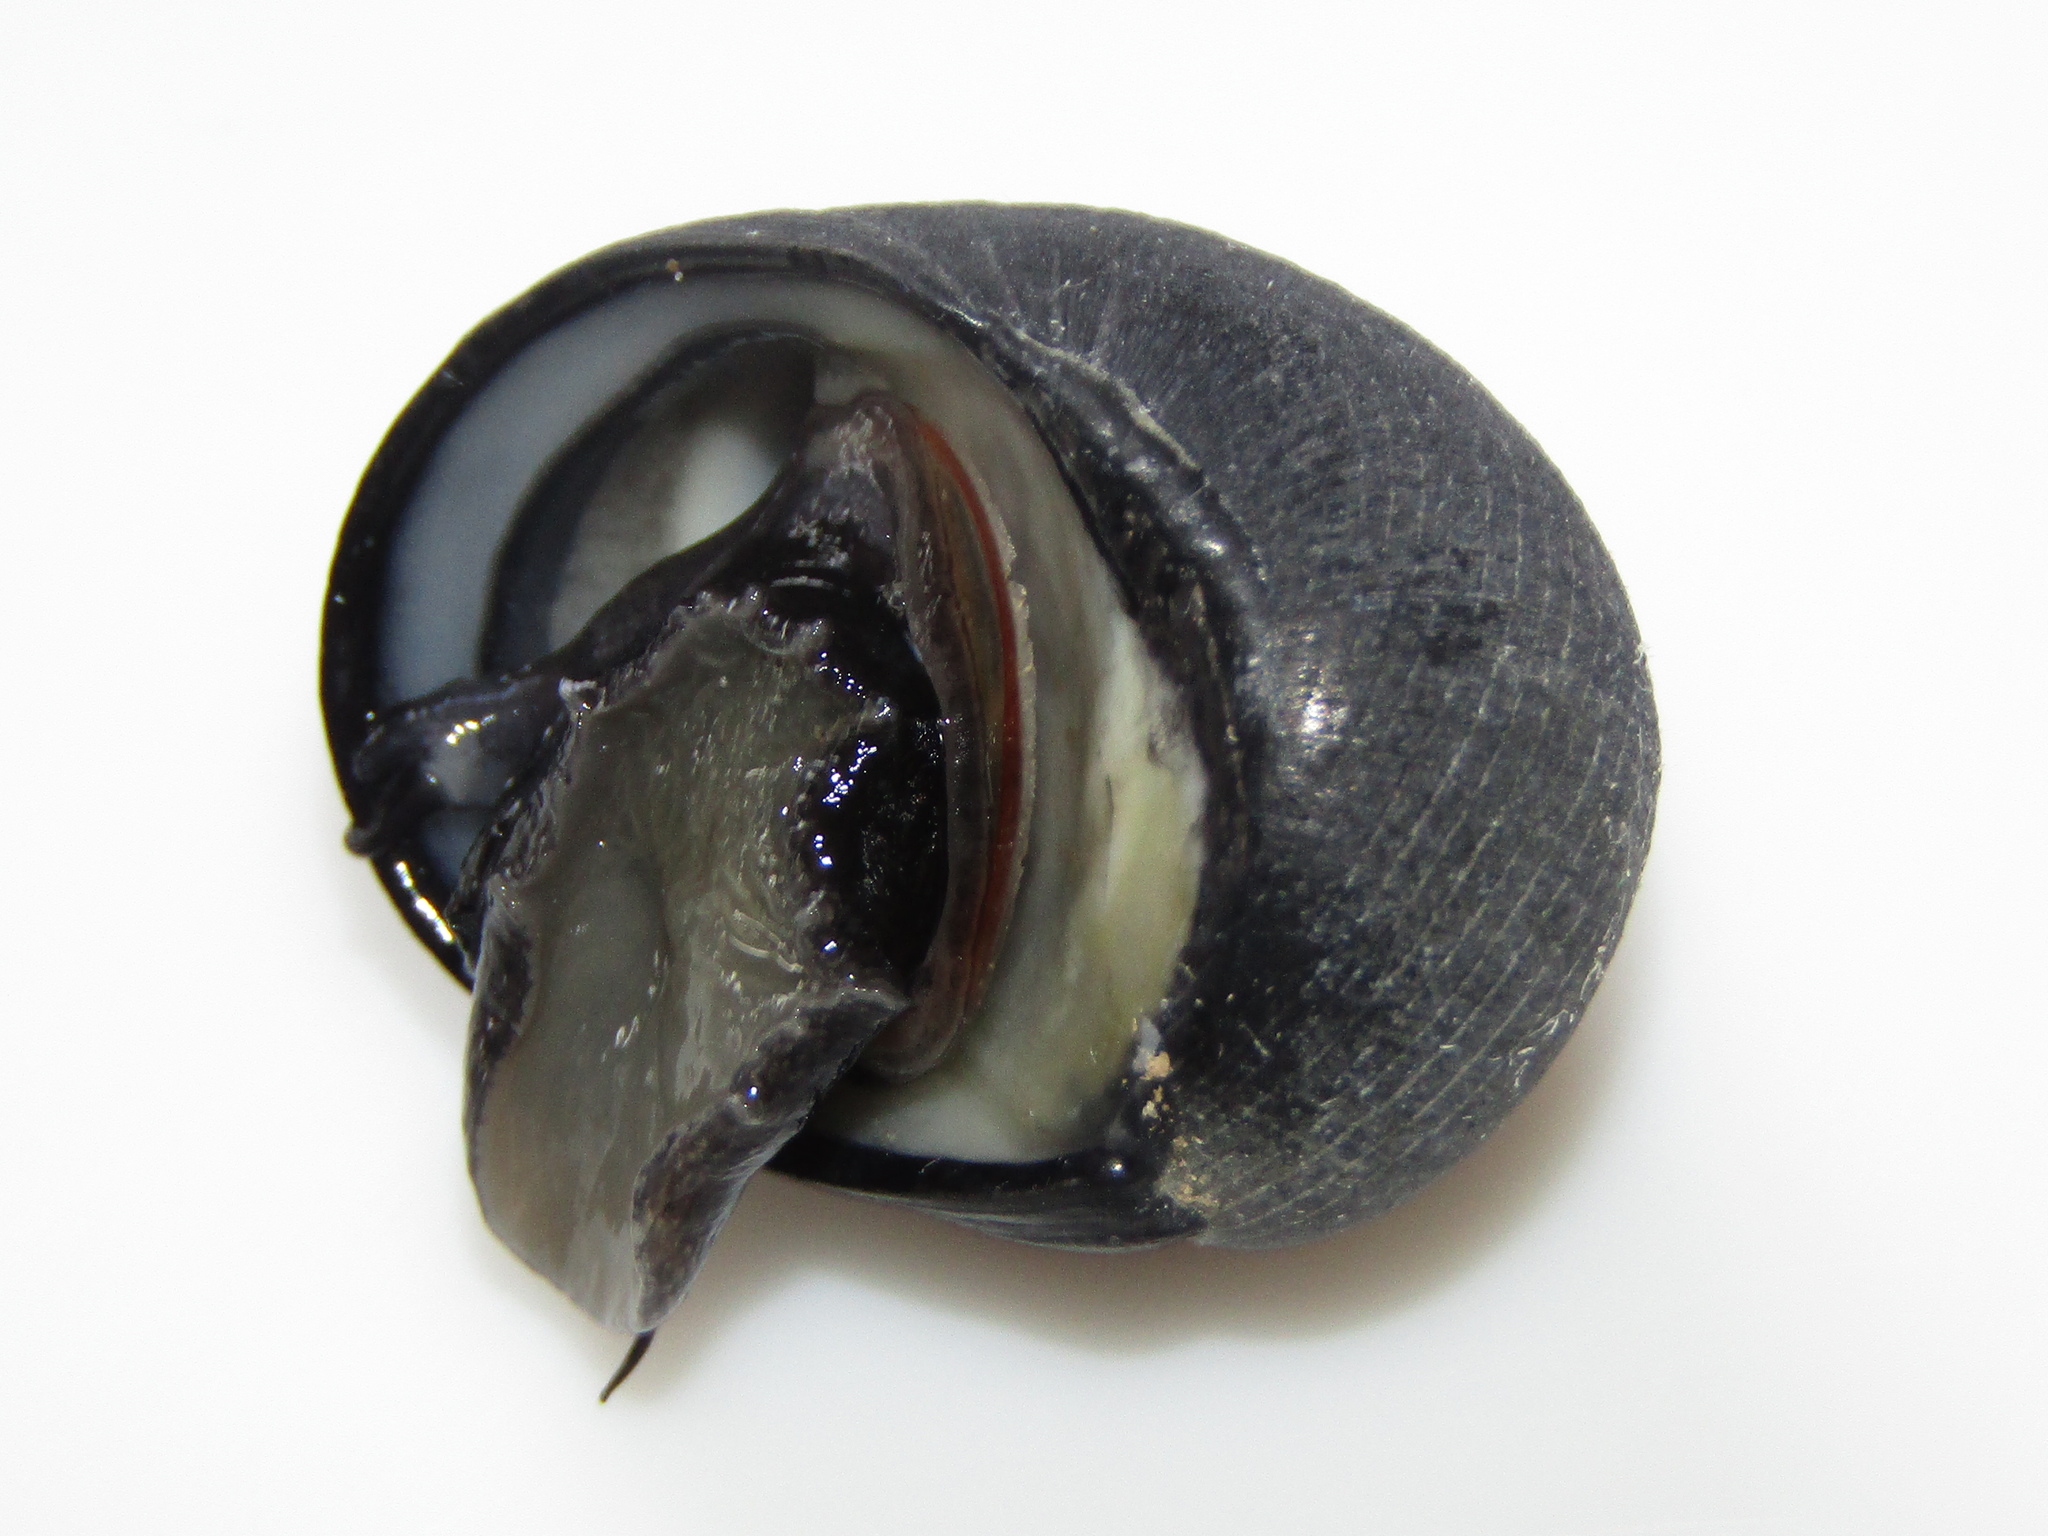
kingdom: Animalia
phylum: Mollusca
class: Gastropoda
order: Cycloneritida
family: Neritidae
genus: Nerita
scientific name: Nerita melanotragus
